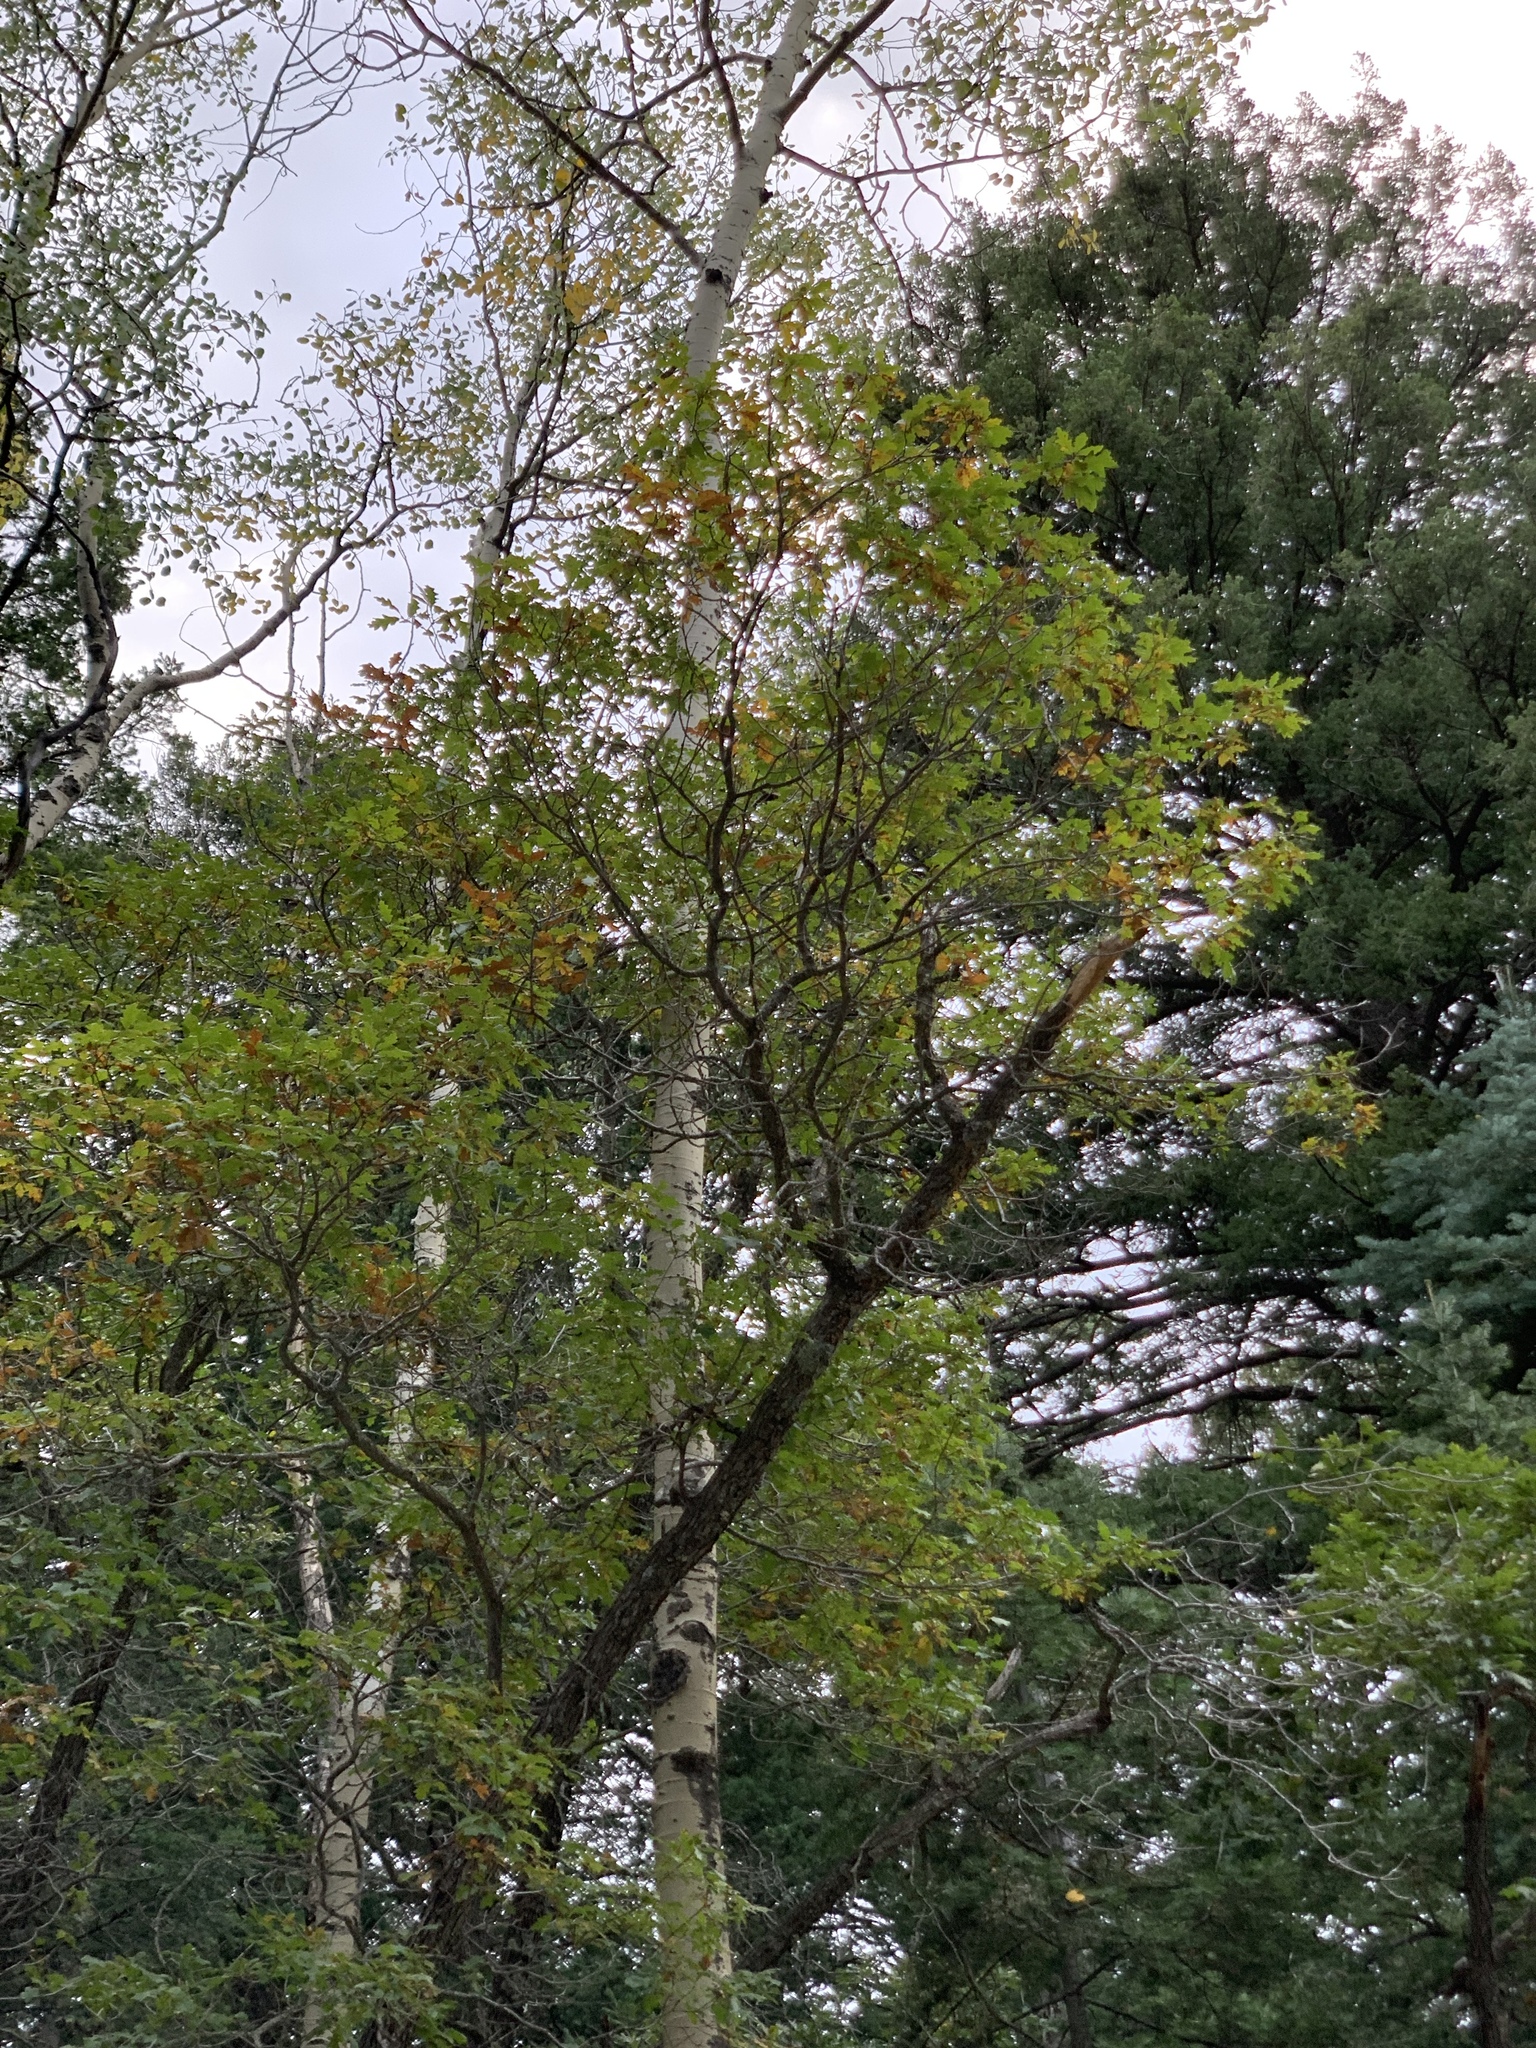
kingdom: Plantae
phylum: Tracheophyta
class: Magnoliopsida
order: Sapindales
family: Sapindaceae
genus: Acer
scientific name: Acer grandidentatum
